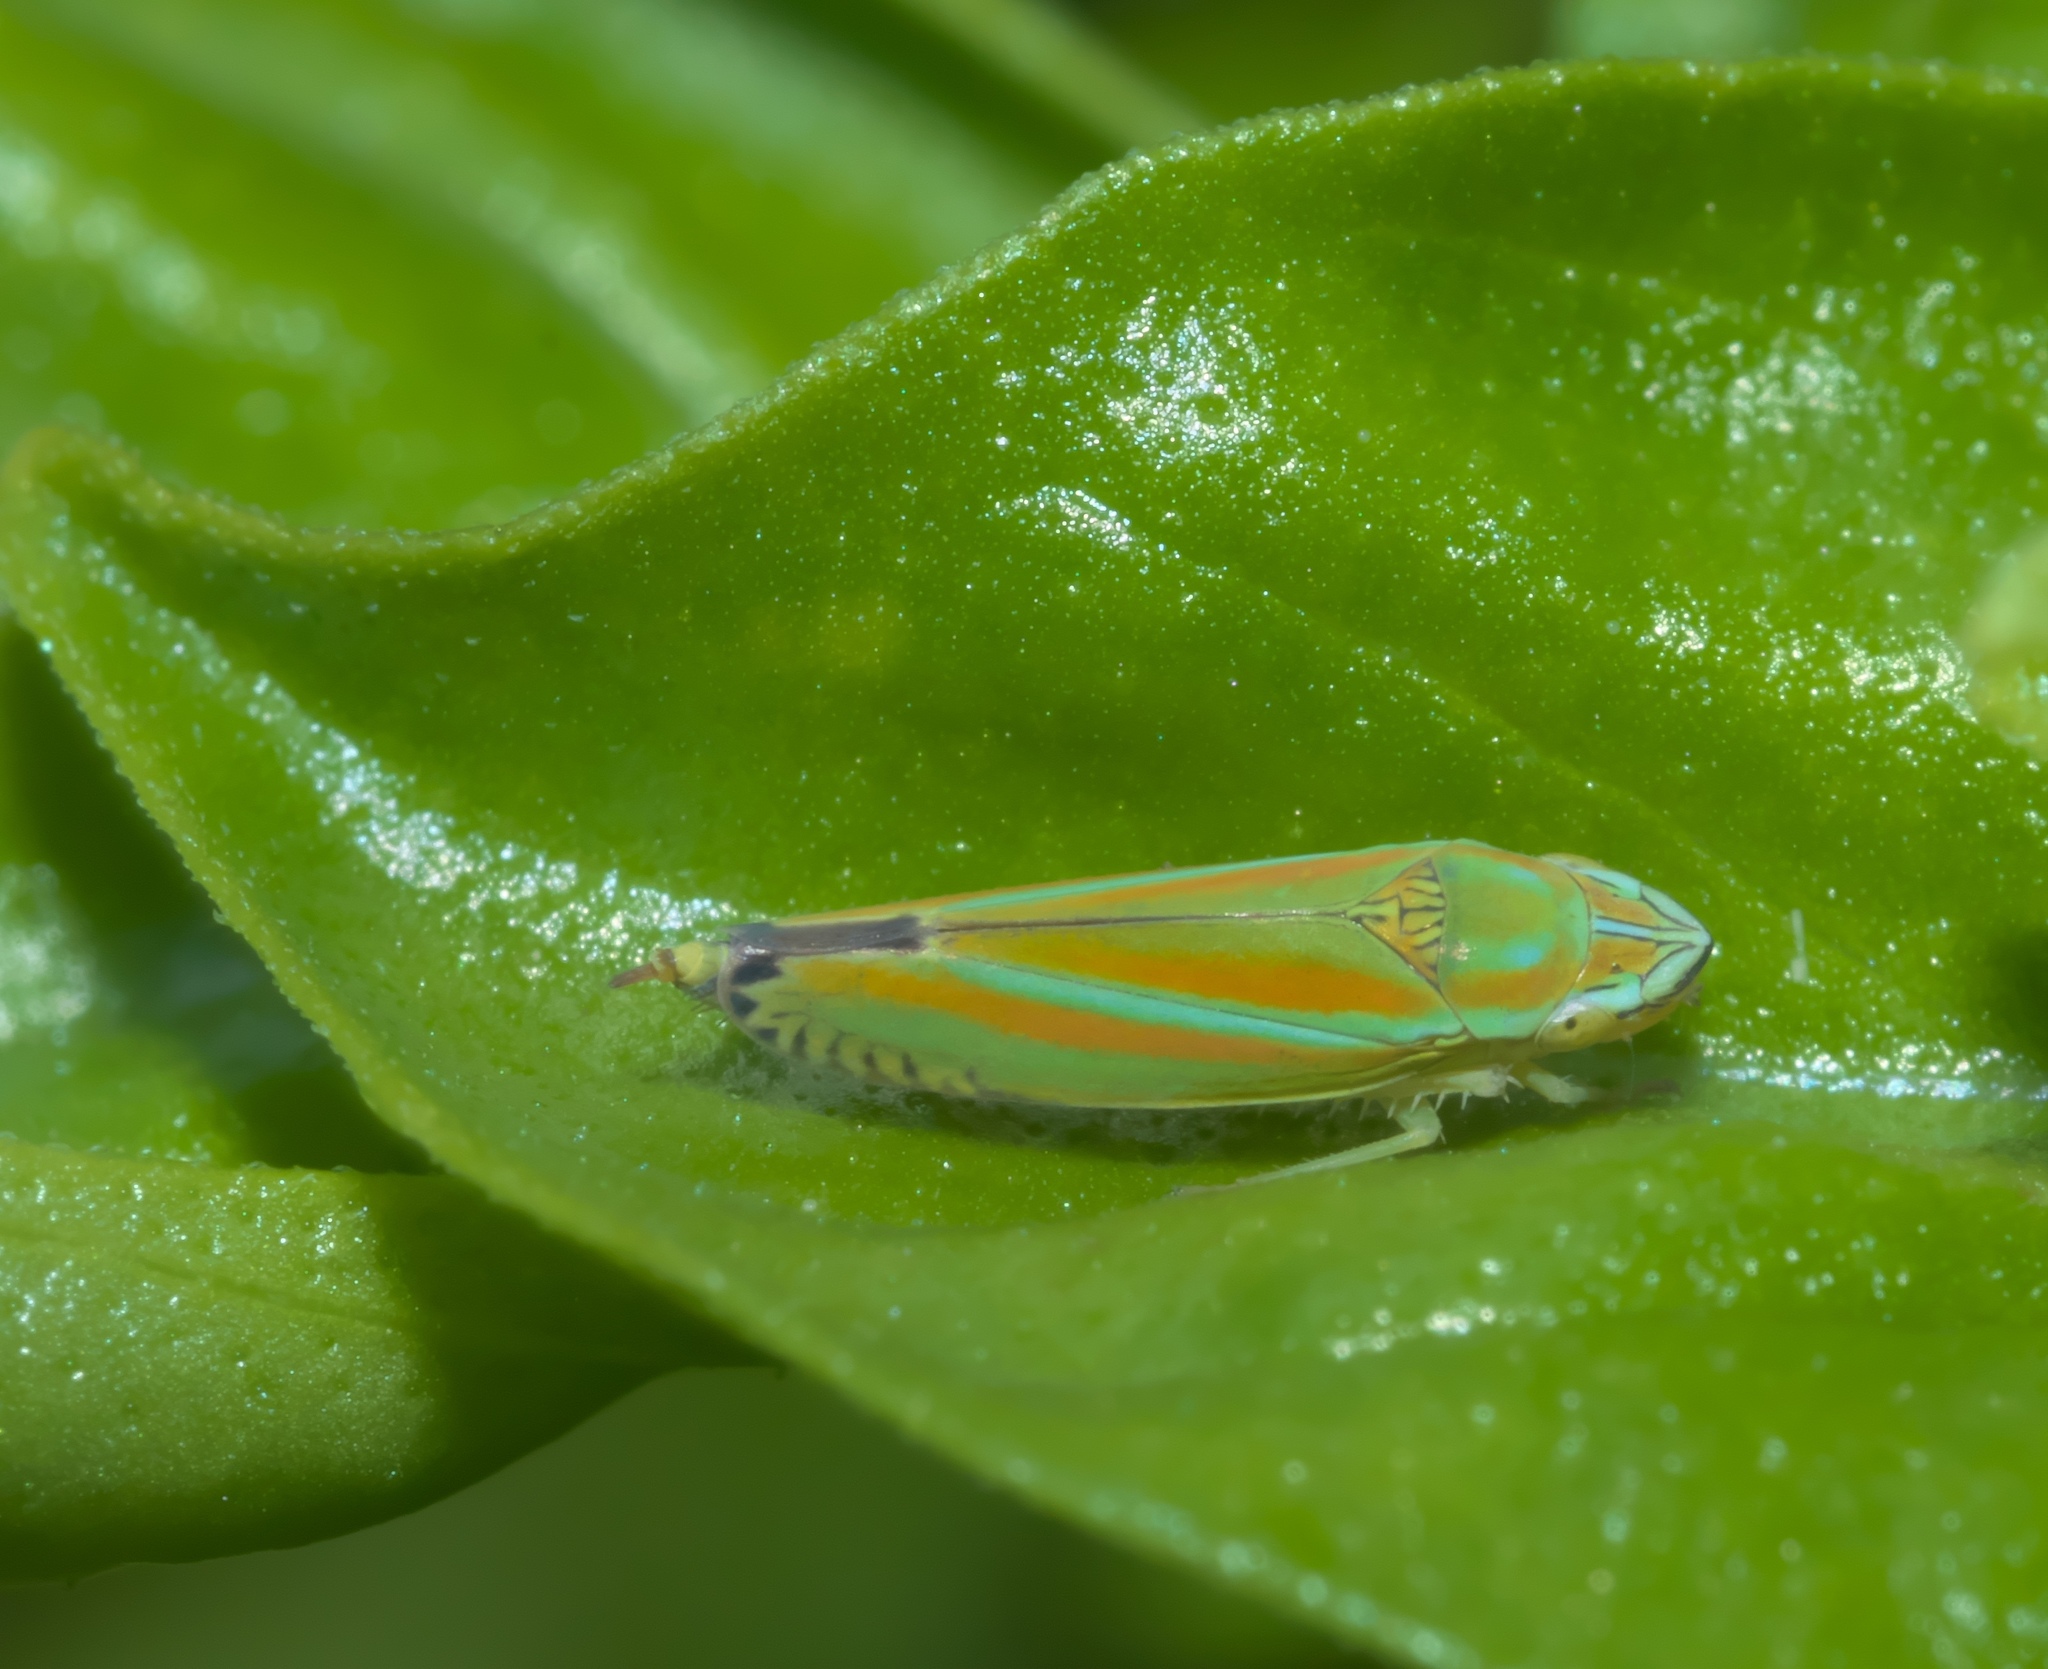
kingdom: Animalia
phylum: Arthropoda
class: Insecta
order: Hemiptera
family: Cicadellidae
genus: Graphocephala
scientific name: Graphocephala versuta
